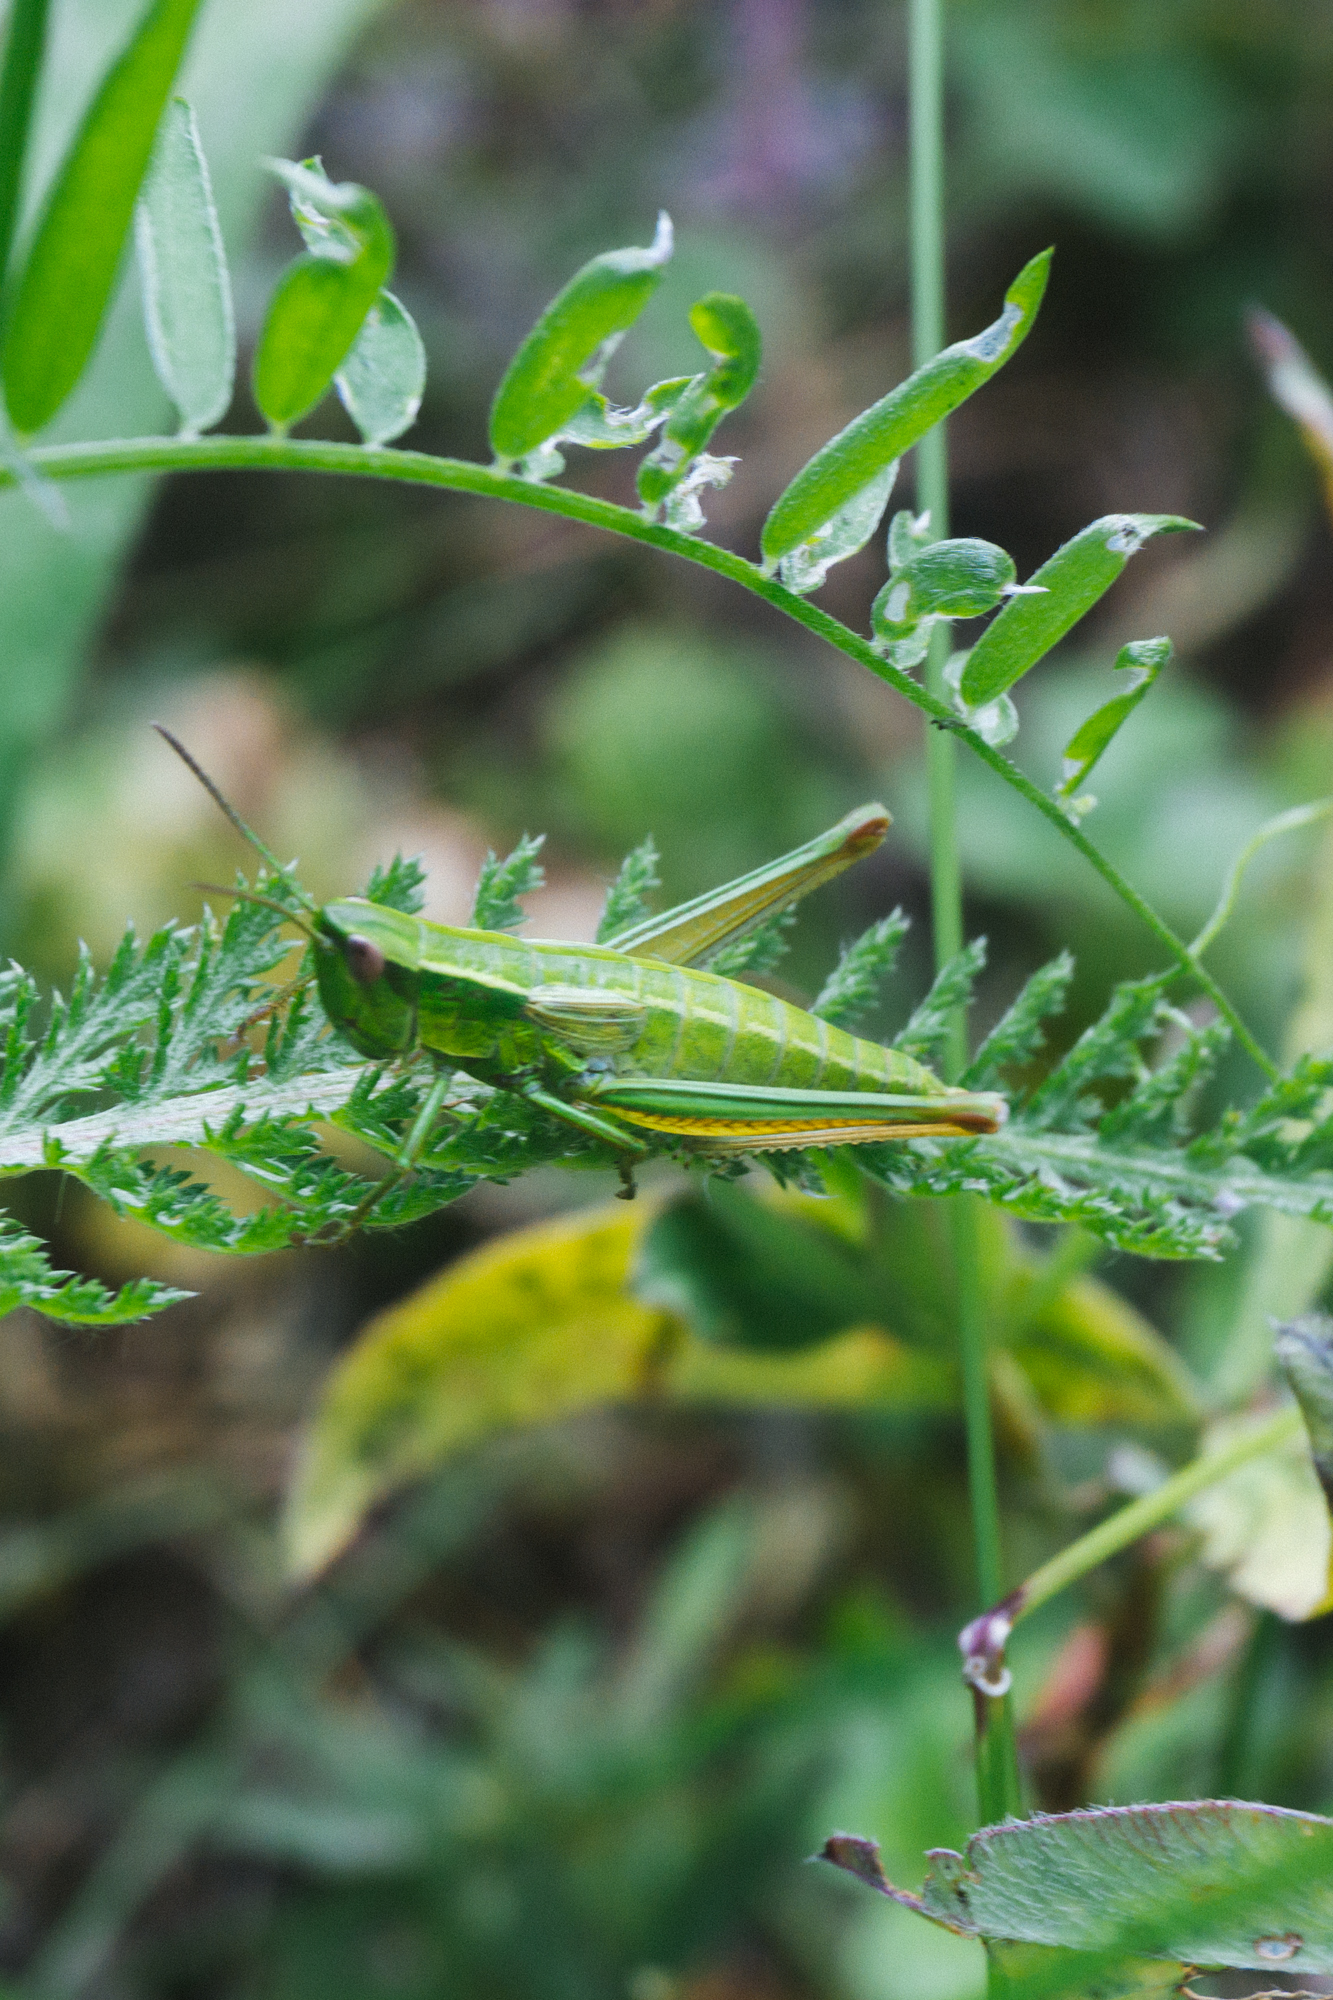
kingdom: Animalia
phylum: Arthropoda
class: Insecta
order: Orthoptera
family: Acrididae
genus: Euthystira
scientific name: Euthystira brachyptera
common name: Small gold grasshopper
